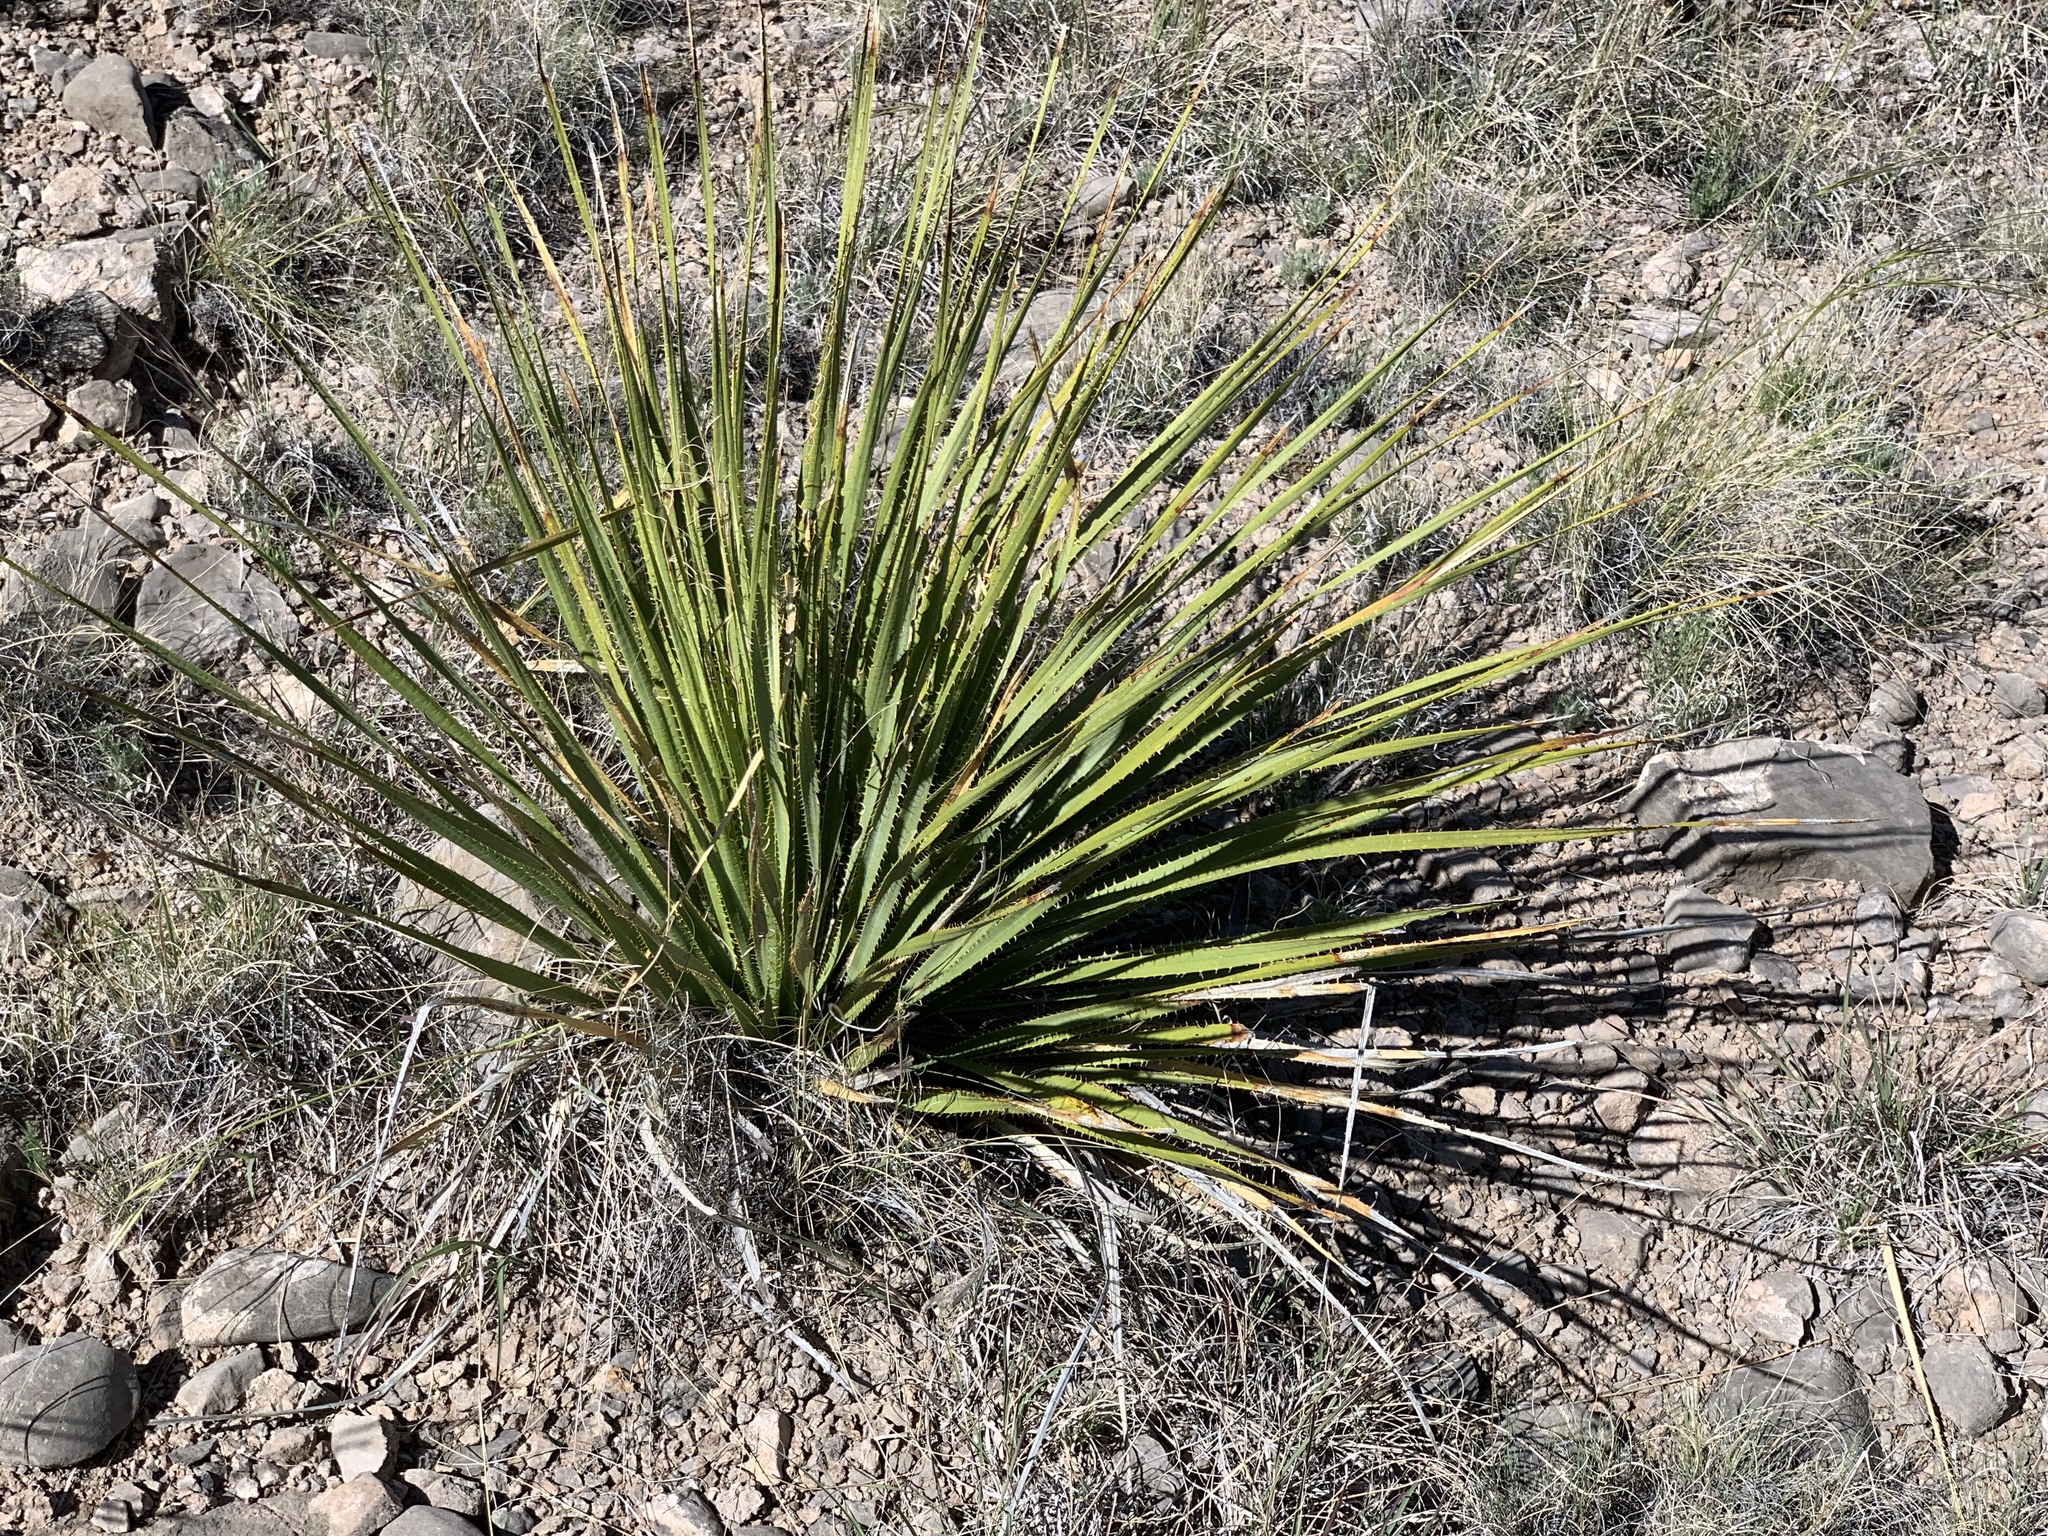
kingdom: Plantae
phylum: Tracheophyta
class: Liliopsida
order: Asparagales
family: Asparagaceae
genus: Dasylirion
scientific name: Dasylirion wheeleri
